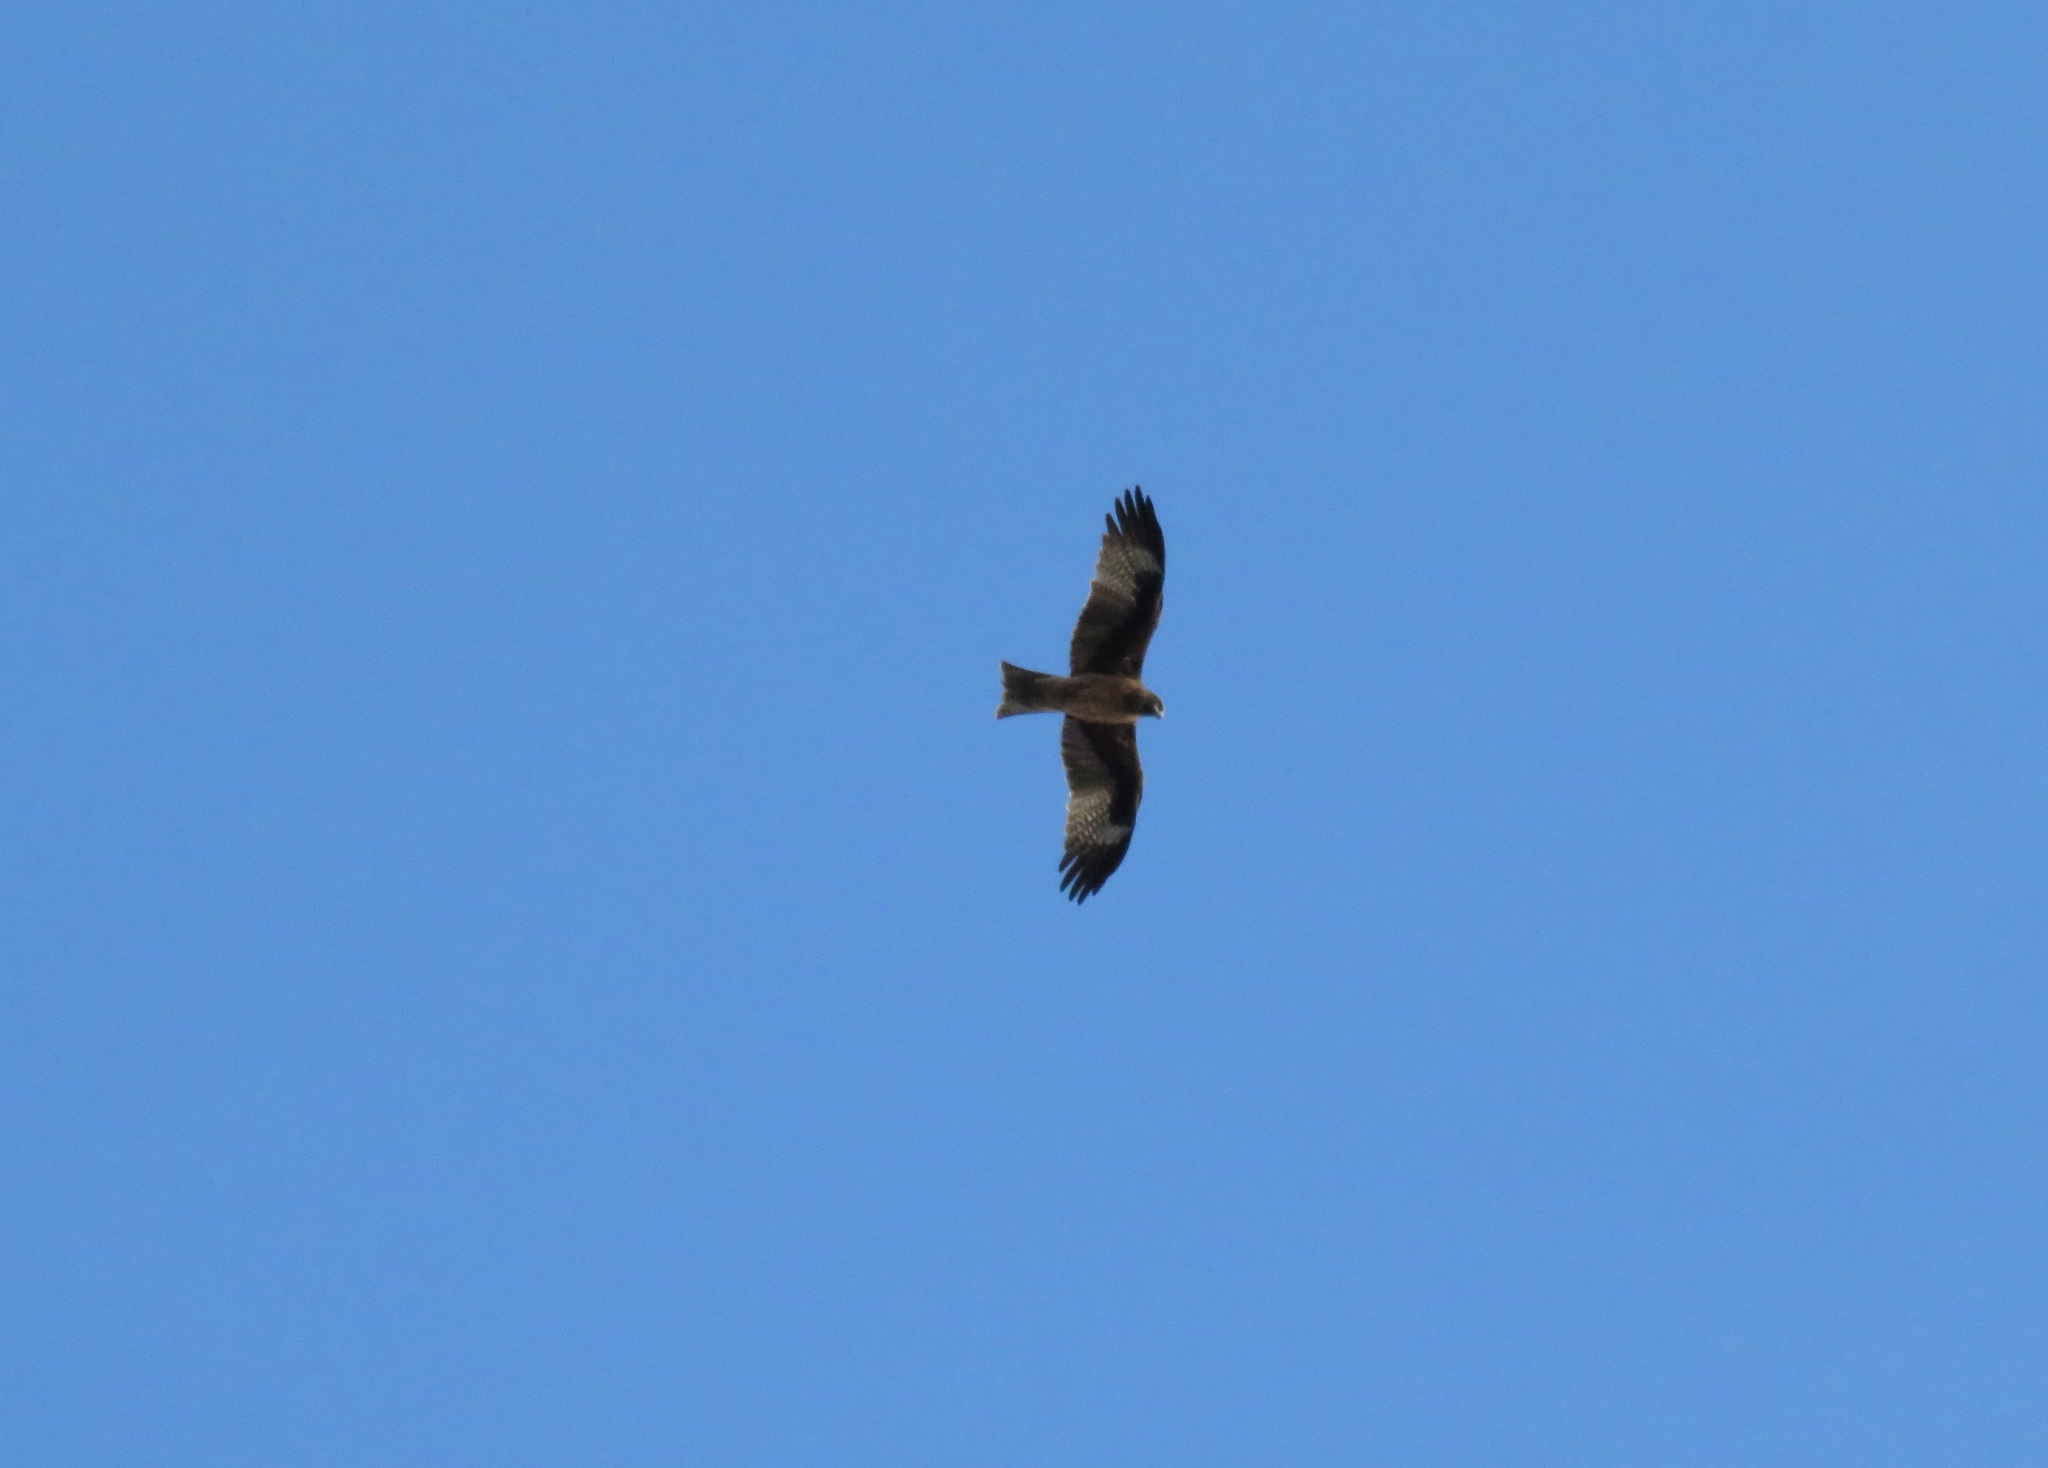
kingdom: Animalia
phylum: Chordata
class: Aves
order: Accipitriformes
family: Accipitridae
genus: Milvus
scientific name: Milvus migrans
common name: Black kite
